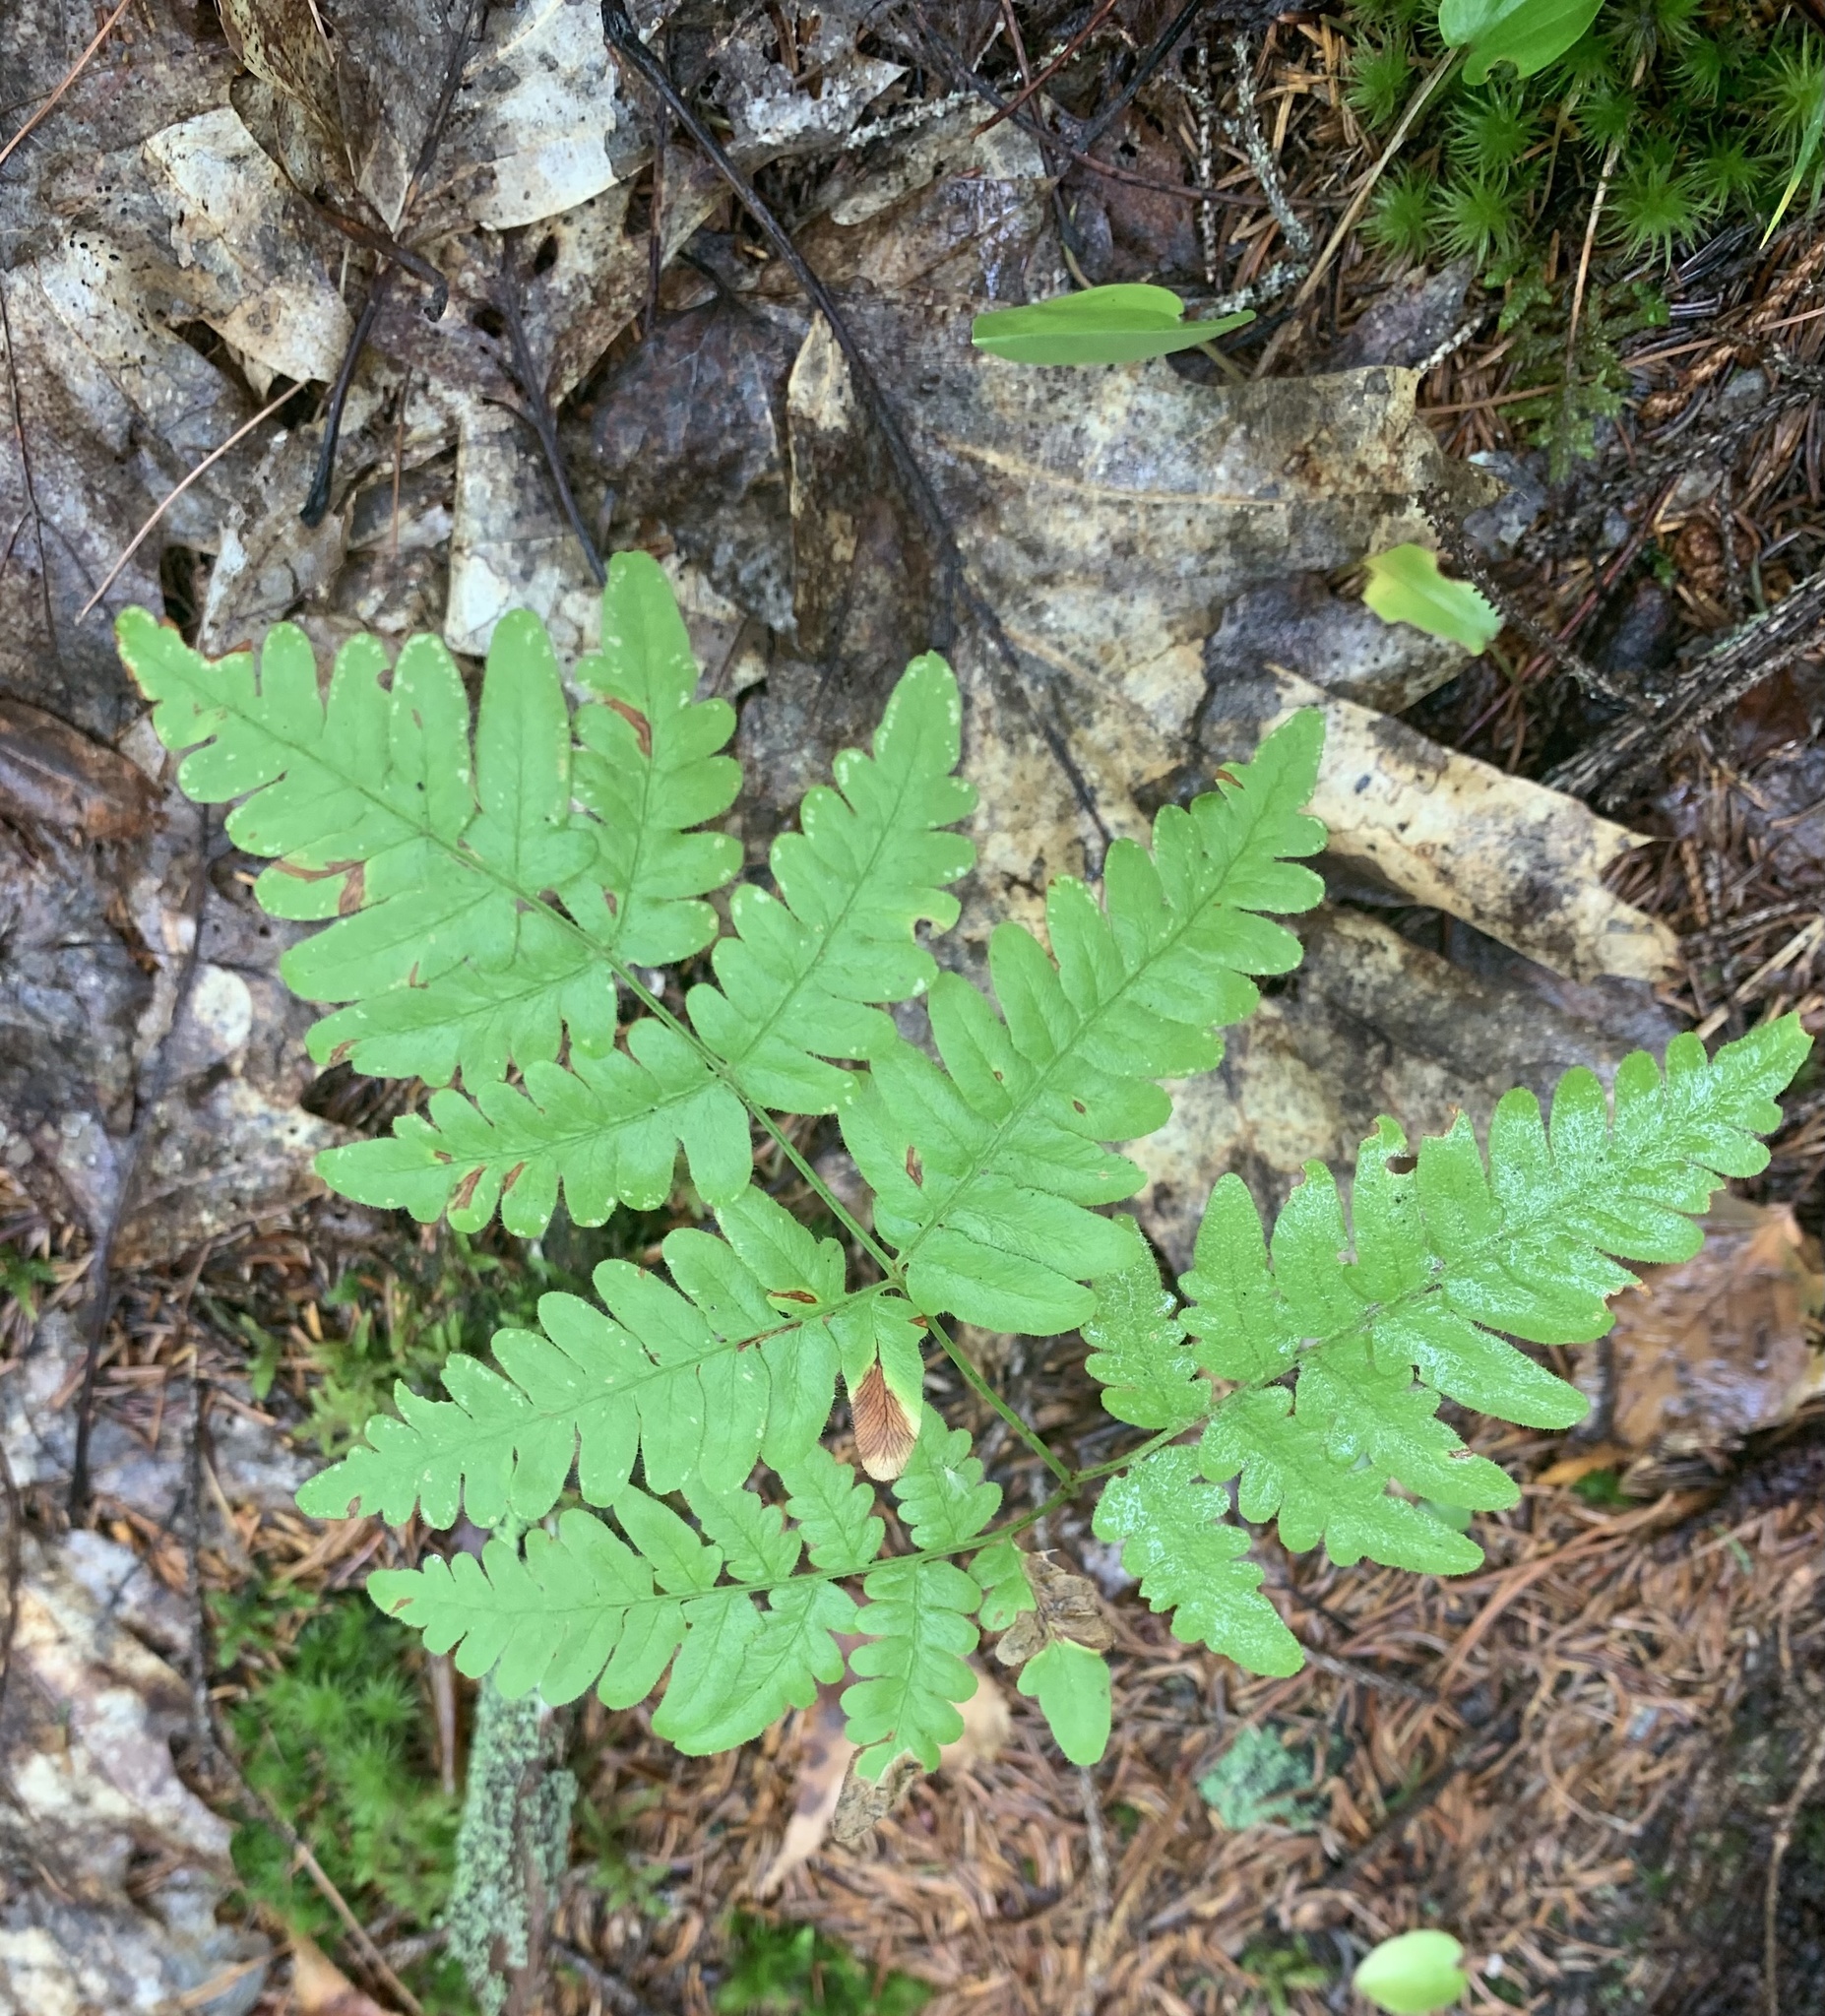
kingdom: Plantae
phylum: Tracheophyta
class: Polypodiopsida
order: Polypodiales
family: Cystopteridaceae
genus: Gymnocarpium
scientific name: Gymnocarpium dryopteris
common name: Oak fern
